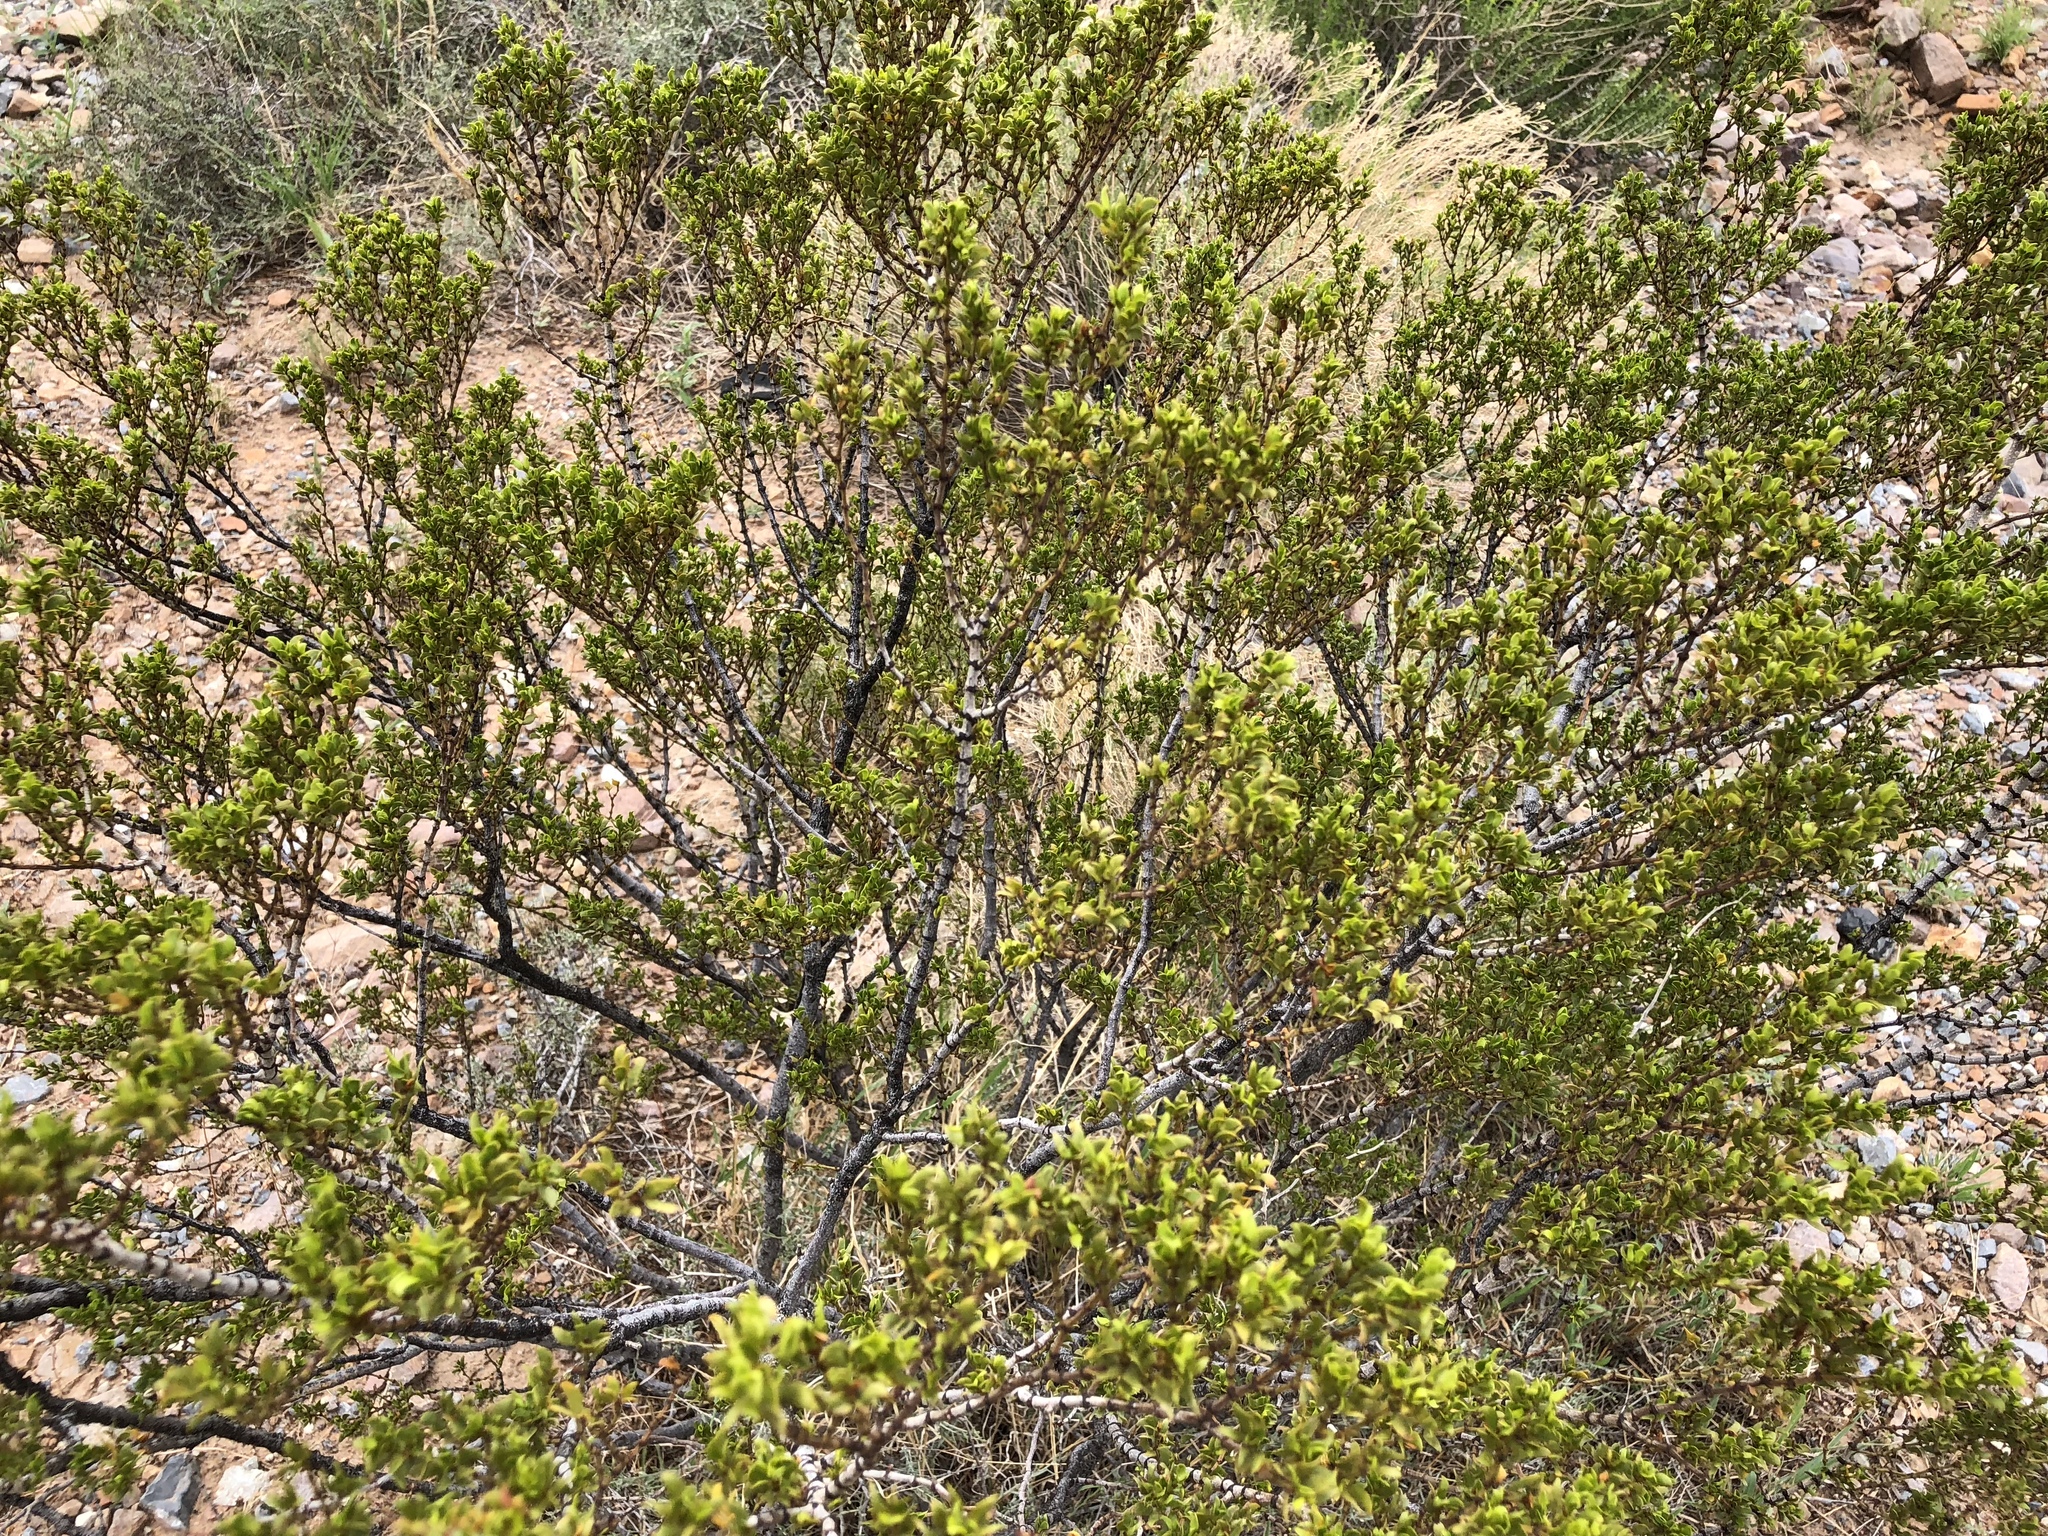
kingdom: Plantae
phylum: Tracheophyta
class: Magnoliopsida
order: Zygophyllales
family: Zygophyllaceae
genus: Larrea
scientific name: Larrea tridentata
